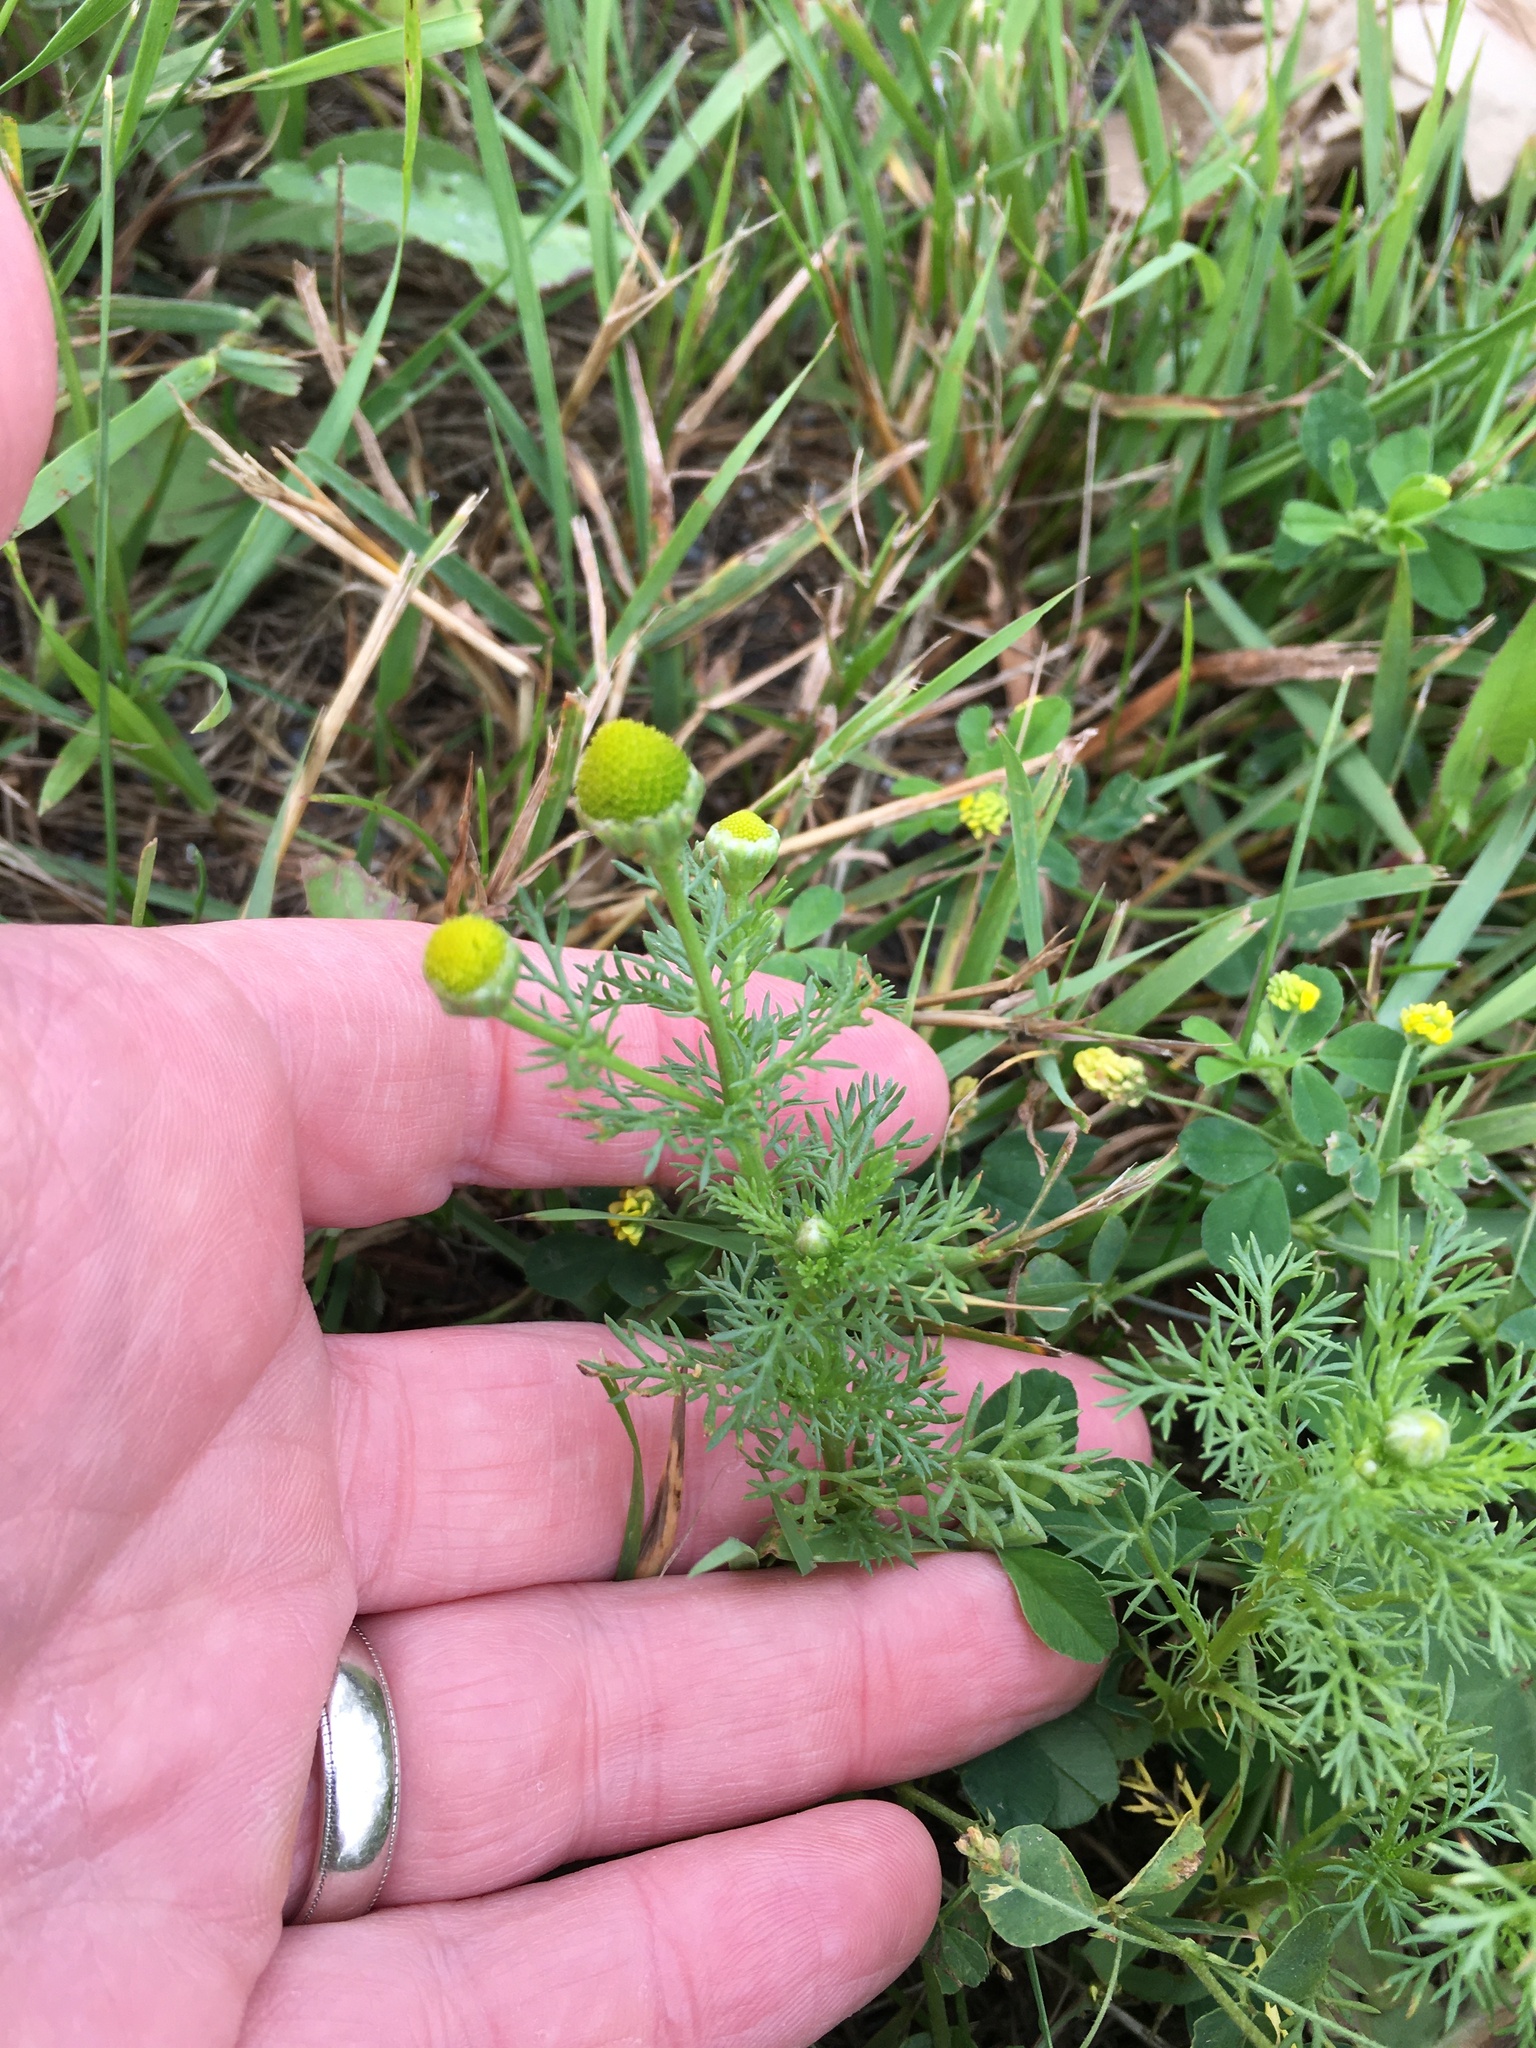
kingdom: Plantae
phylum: Tracheophyta
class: Magnoliopsida
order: Asterales
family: Asteraceae
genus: Matricaria
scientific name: Matricaria discoidea
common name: Disc mayweed
